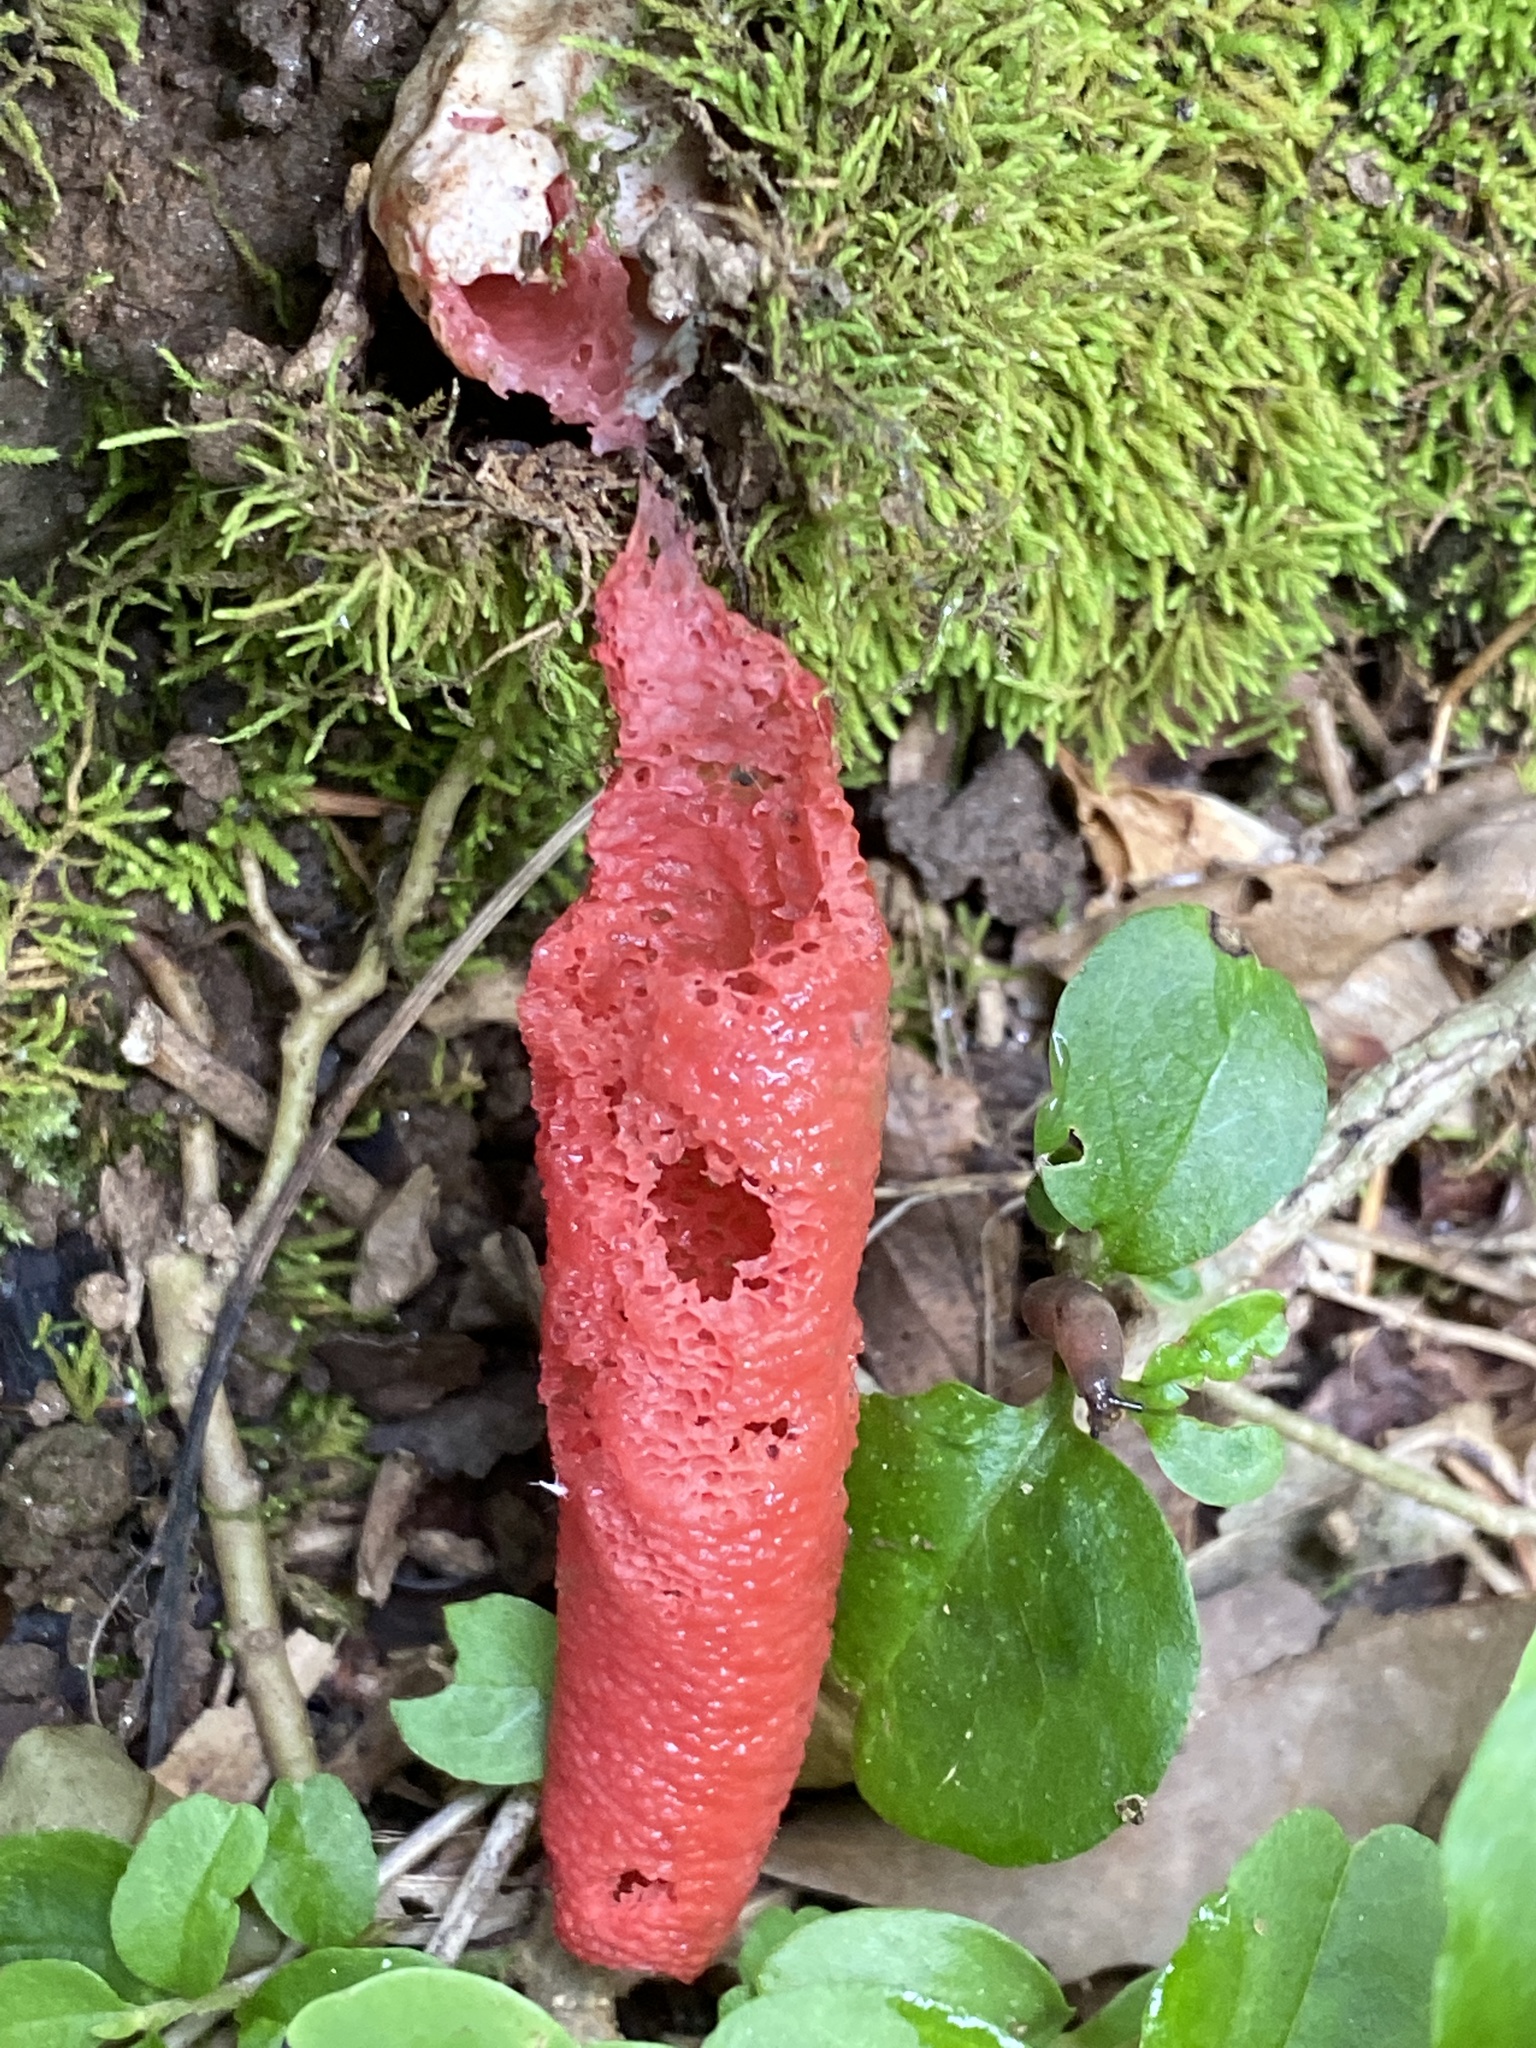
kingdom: Fungi
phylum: Basidiomycota
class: Agaricomycetes
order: Phallales
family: Phallaceae
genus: Mutinus
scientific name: Mutinus elegans
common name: Devil's dipstick
